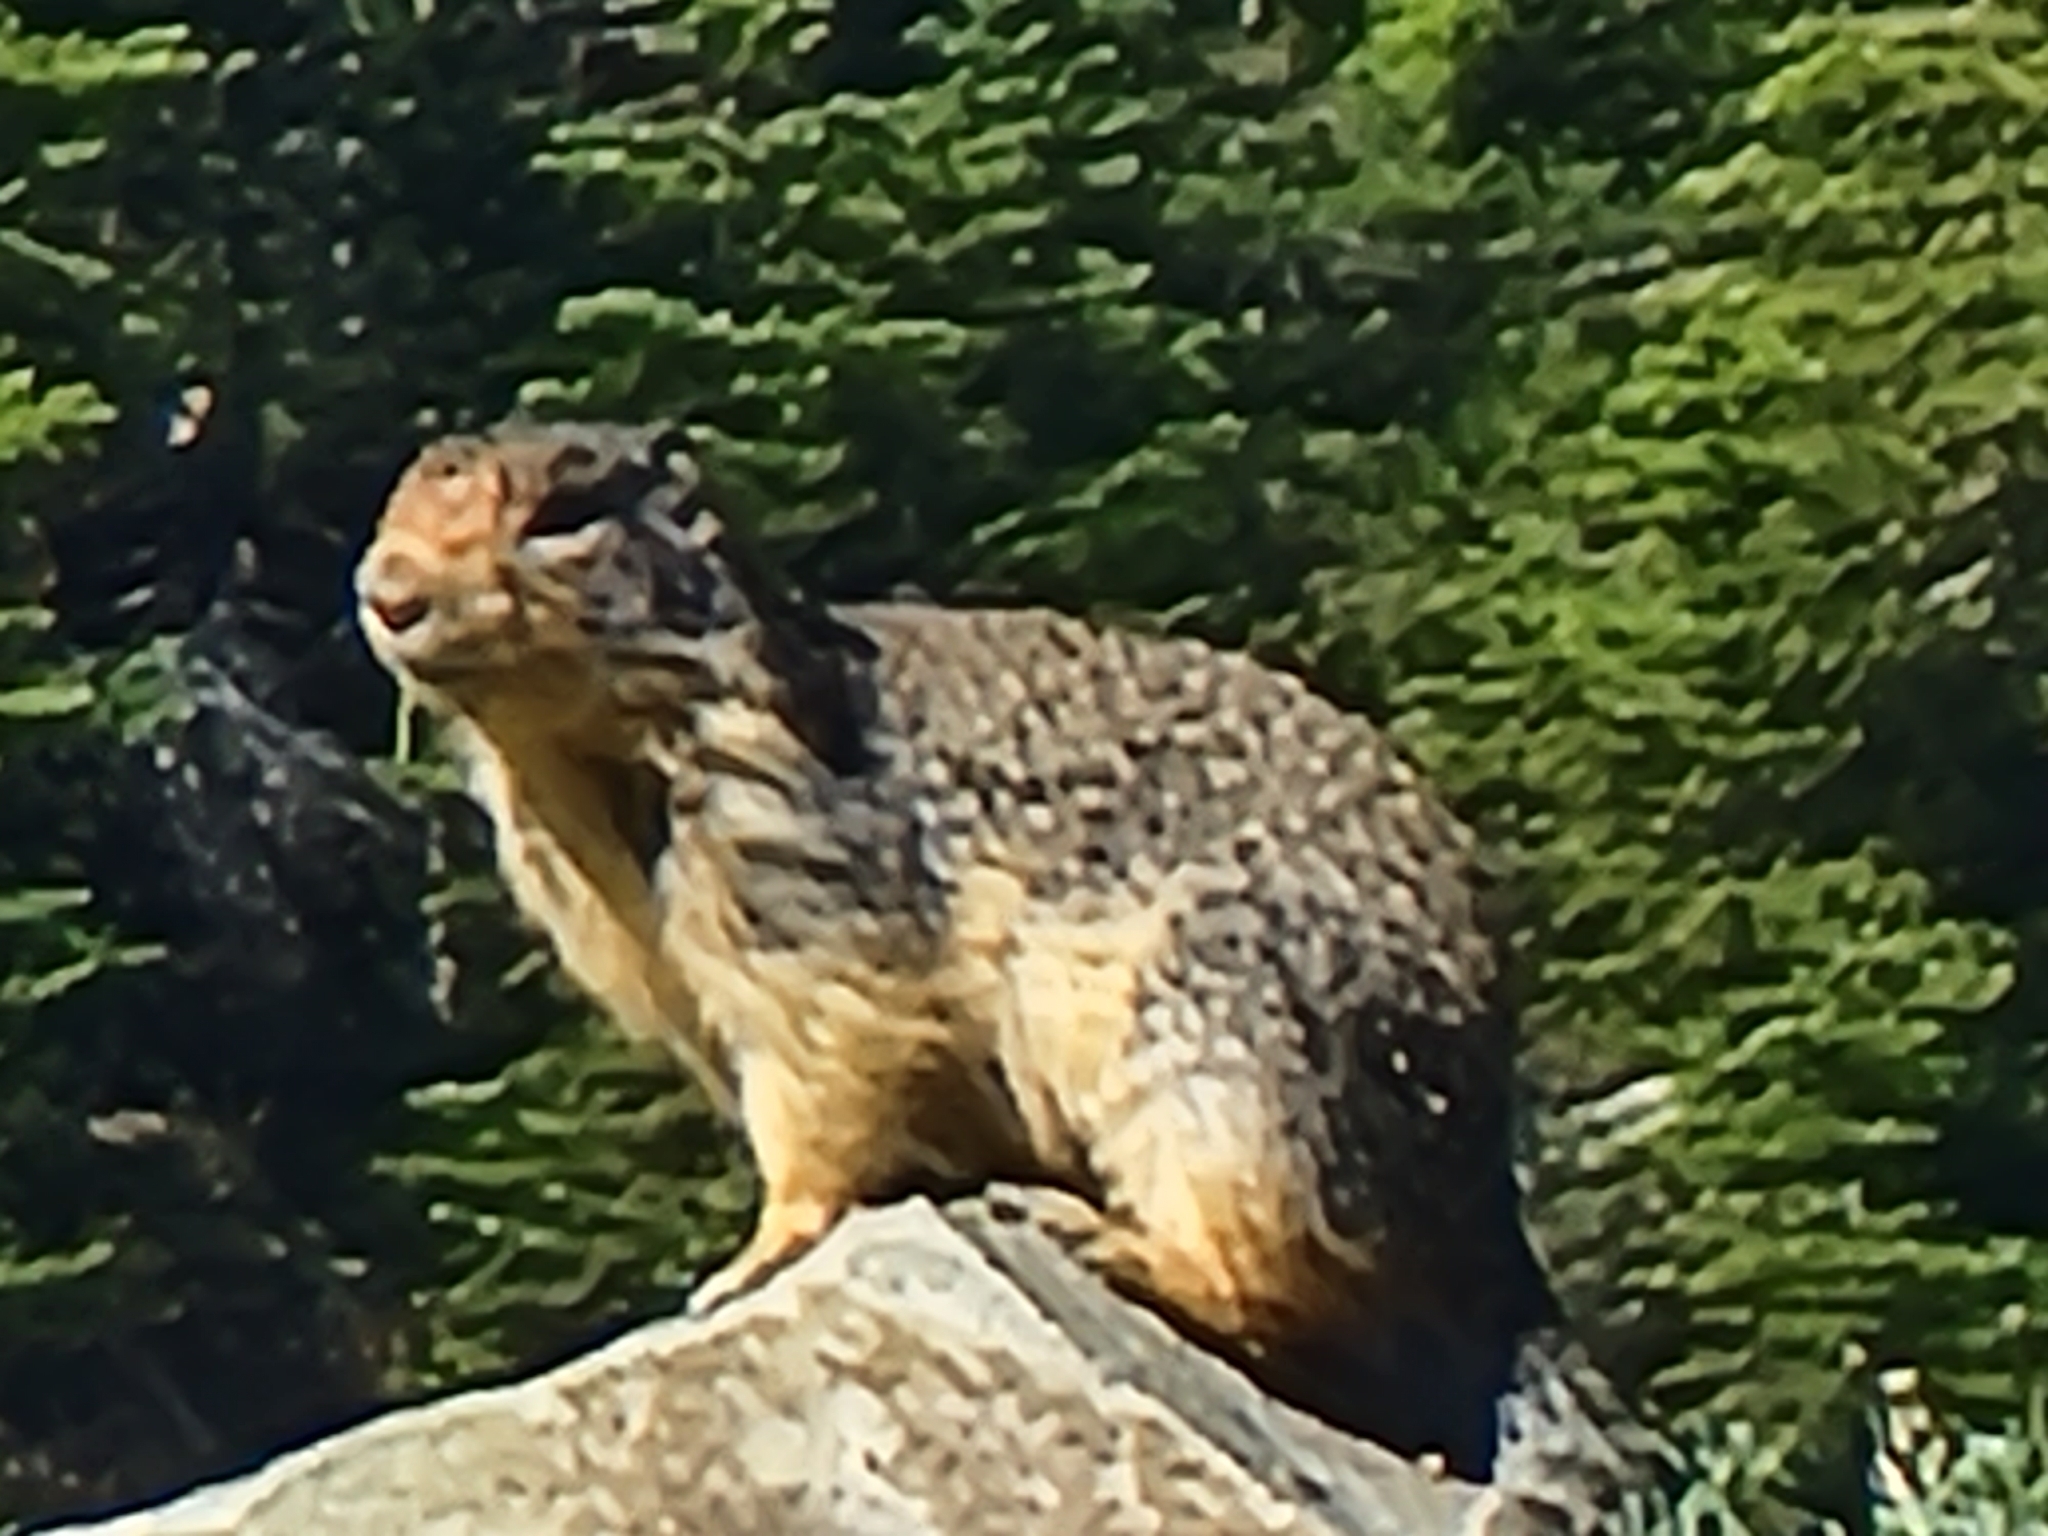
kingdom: Animalia
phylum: Chordata
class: Mammalia
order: Rodentia
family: Sciuridae
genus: Urocitellus
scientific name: Urocitellus columbianus
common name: Columbian ground squirrel
